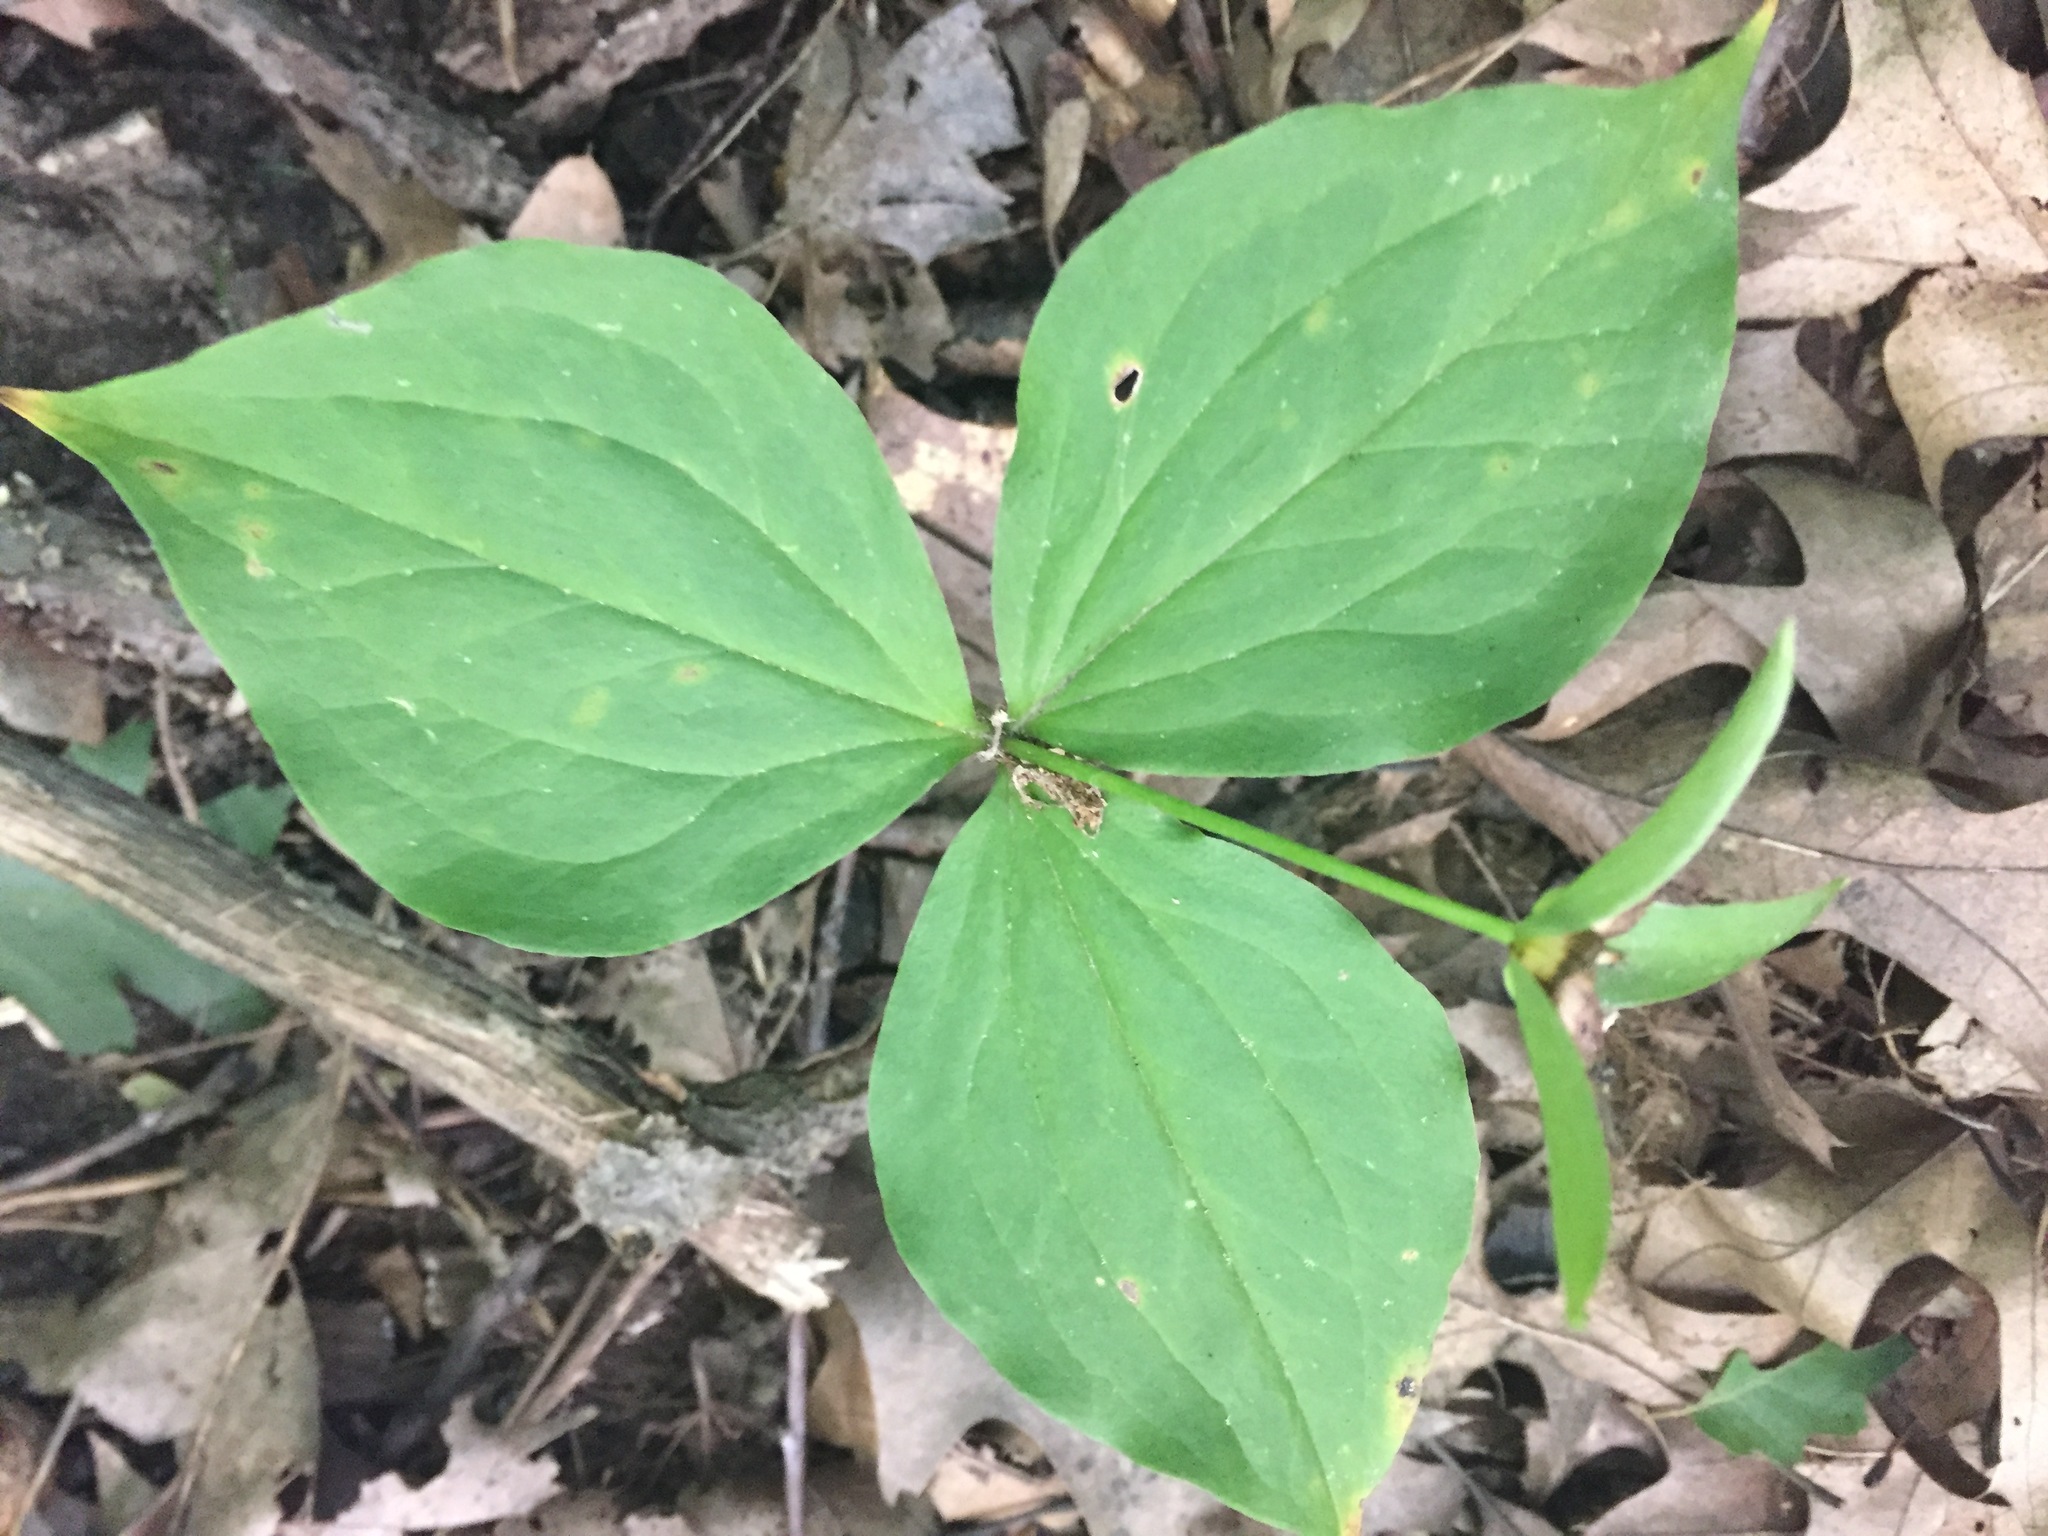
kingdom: Plantae
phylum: Tracheophyta
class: Liliopsida
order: Liliales
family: Melanthiaceae
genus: Trillium
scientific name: Trillium grandiflorum
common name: Great white trillium
